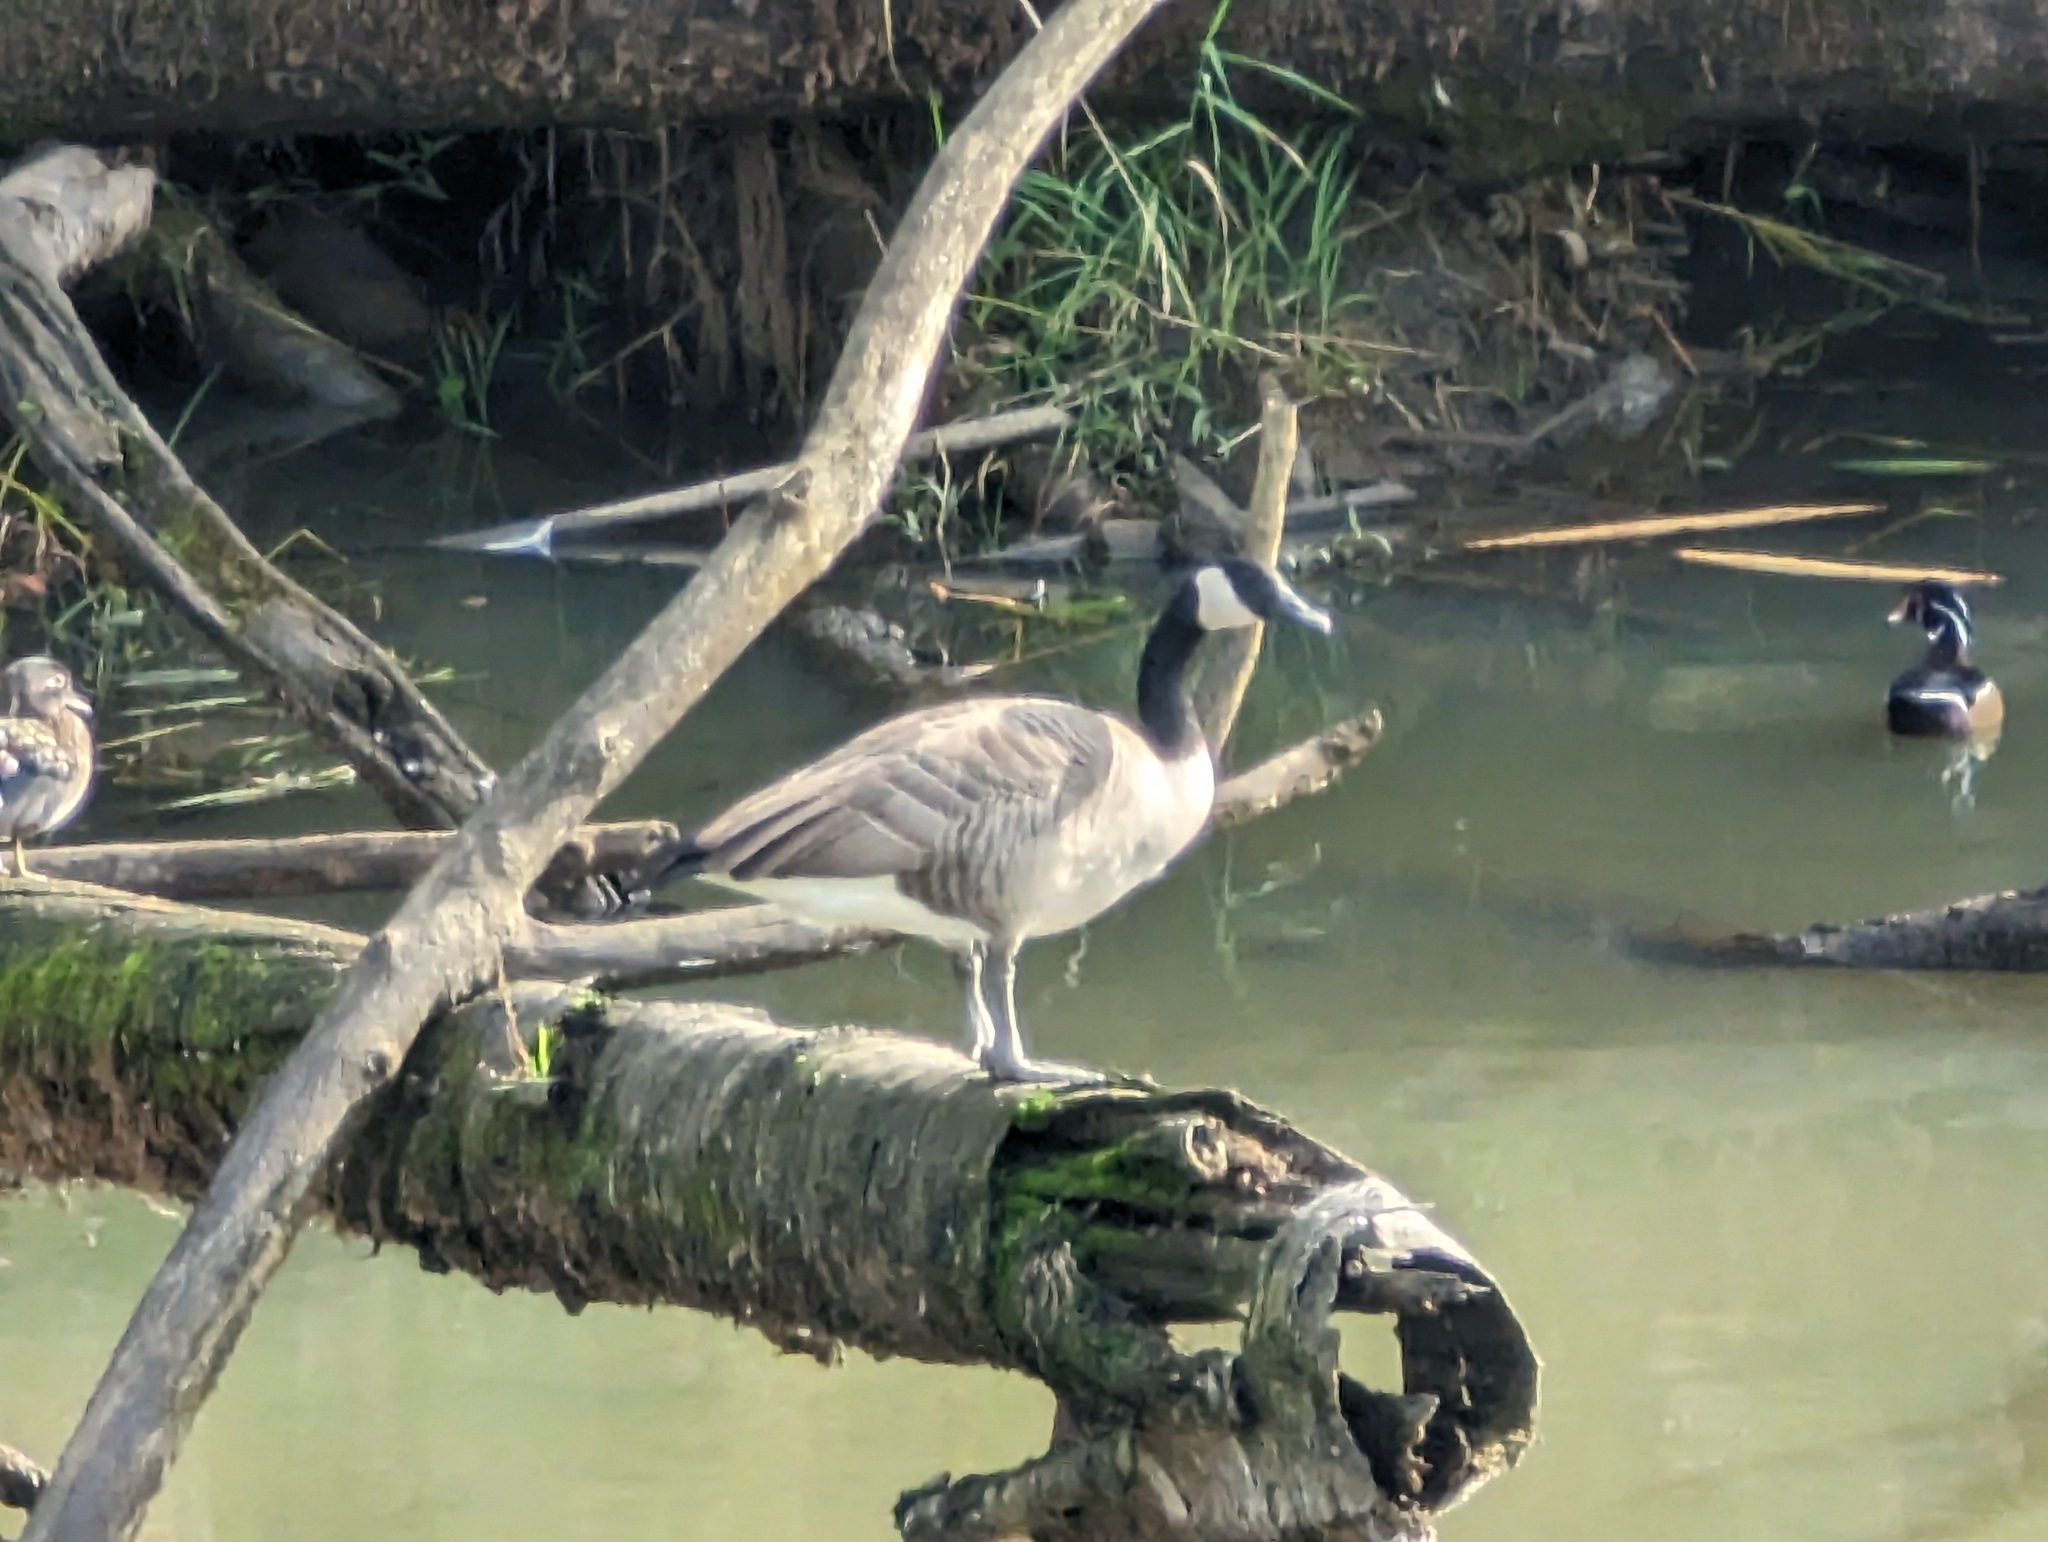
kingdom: Animalia
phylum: Chordata
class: Aves
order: Anseriformes
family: Anatidae
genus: Branta
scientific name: Branta canadensis
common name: Canada goose
